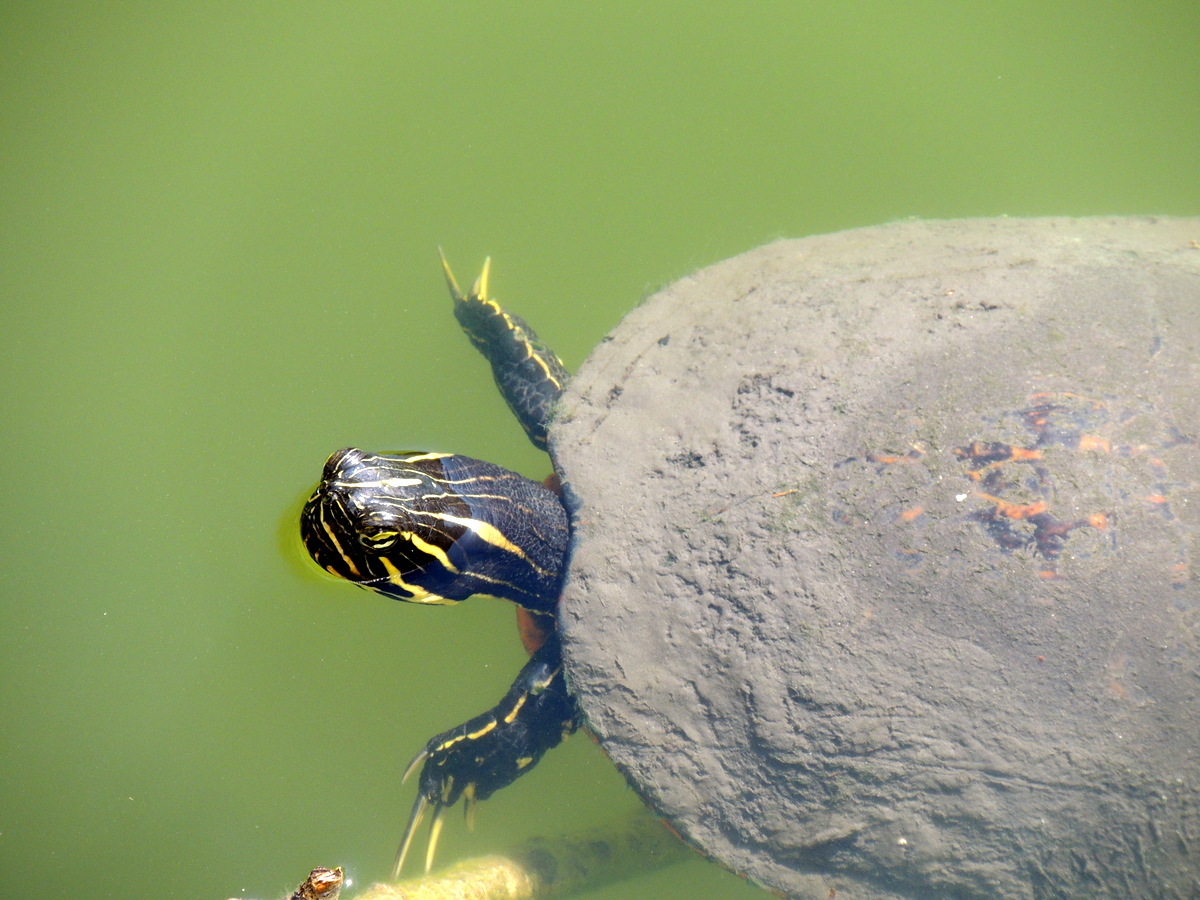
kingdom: Animalia
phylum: Chordata
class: Testudines
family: Emydidae
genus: Pseudemys
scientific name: Pseudemys peninsularis
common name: Peninsula cooter
